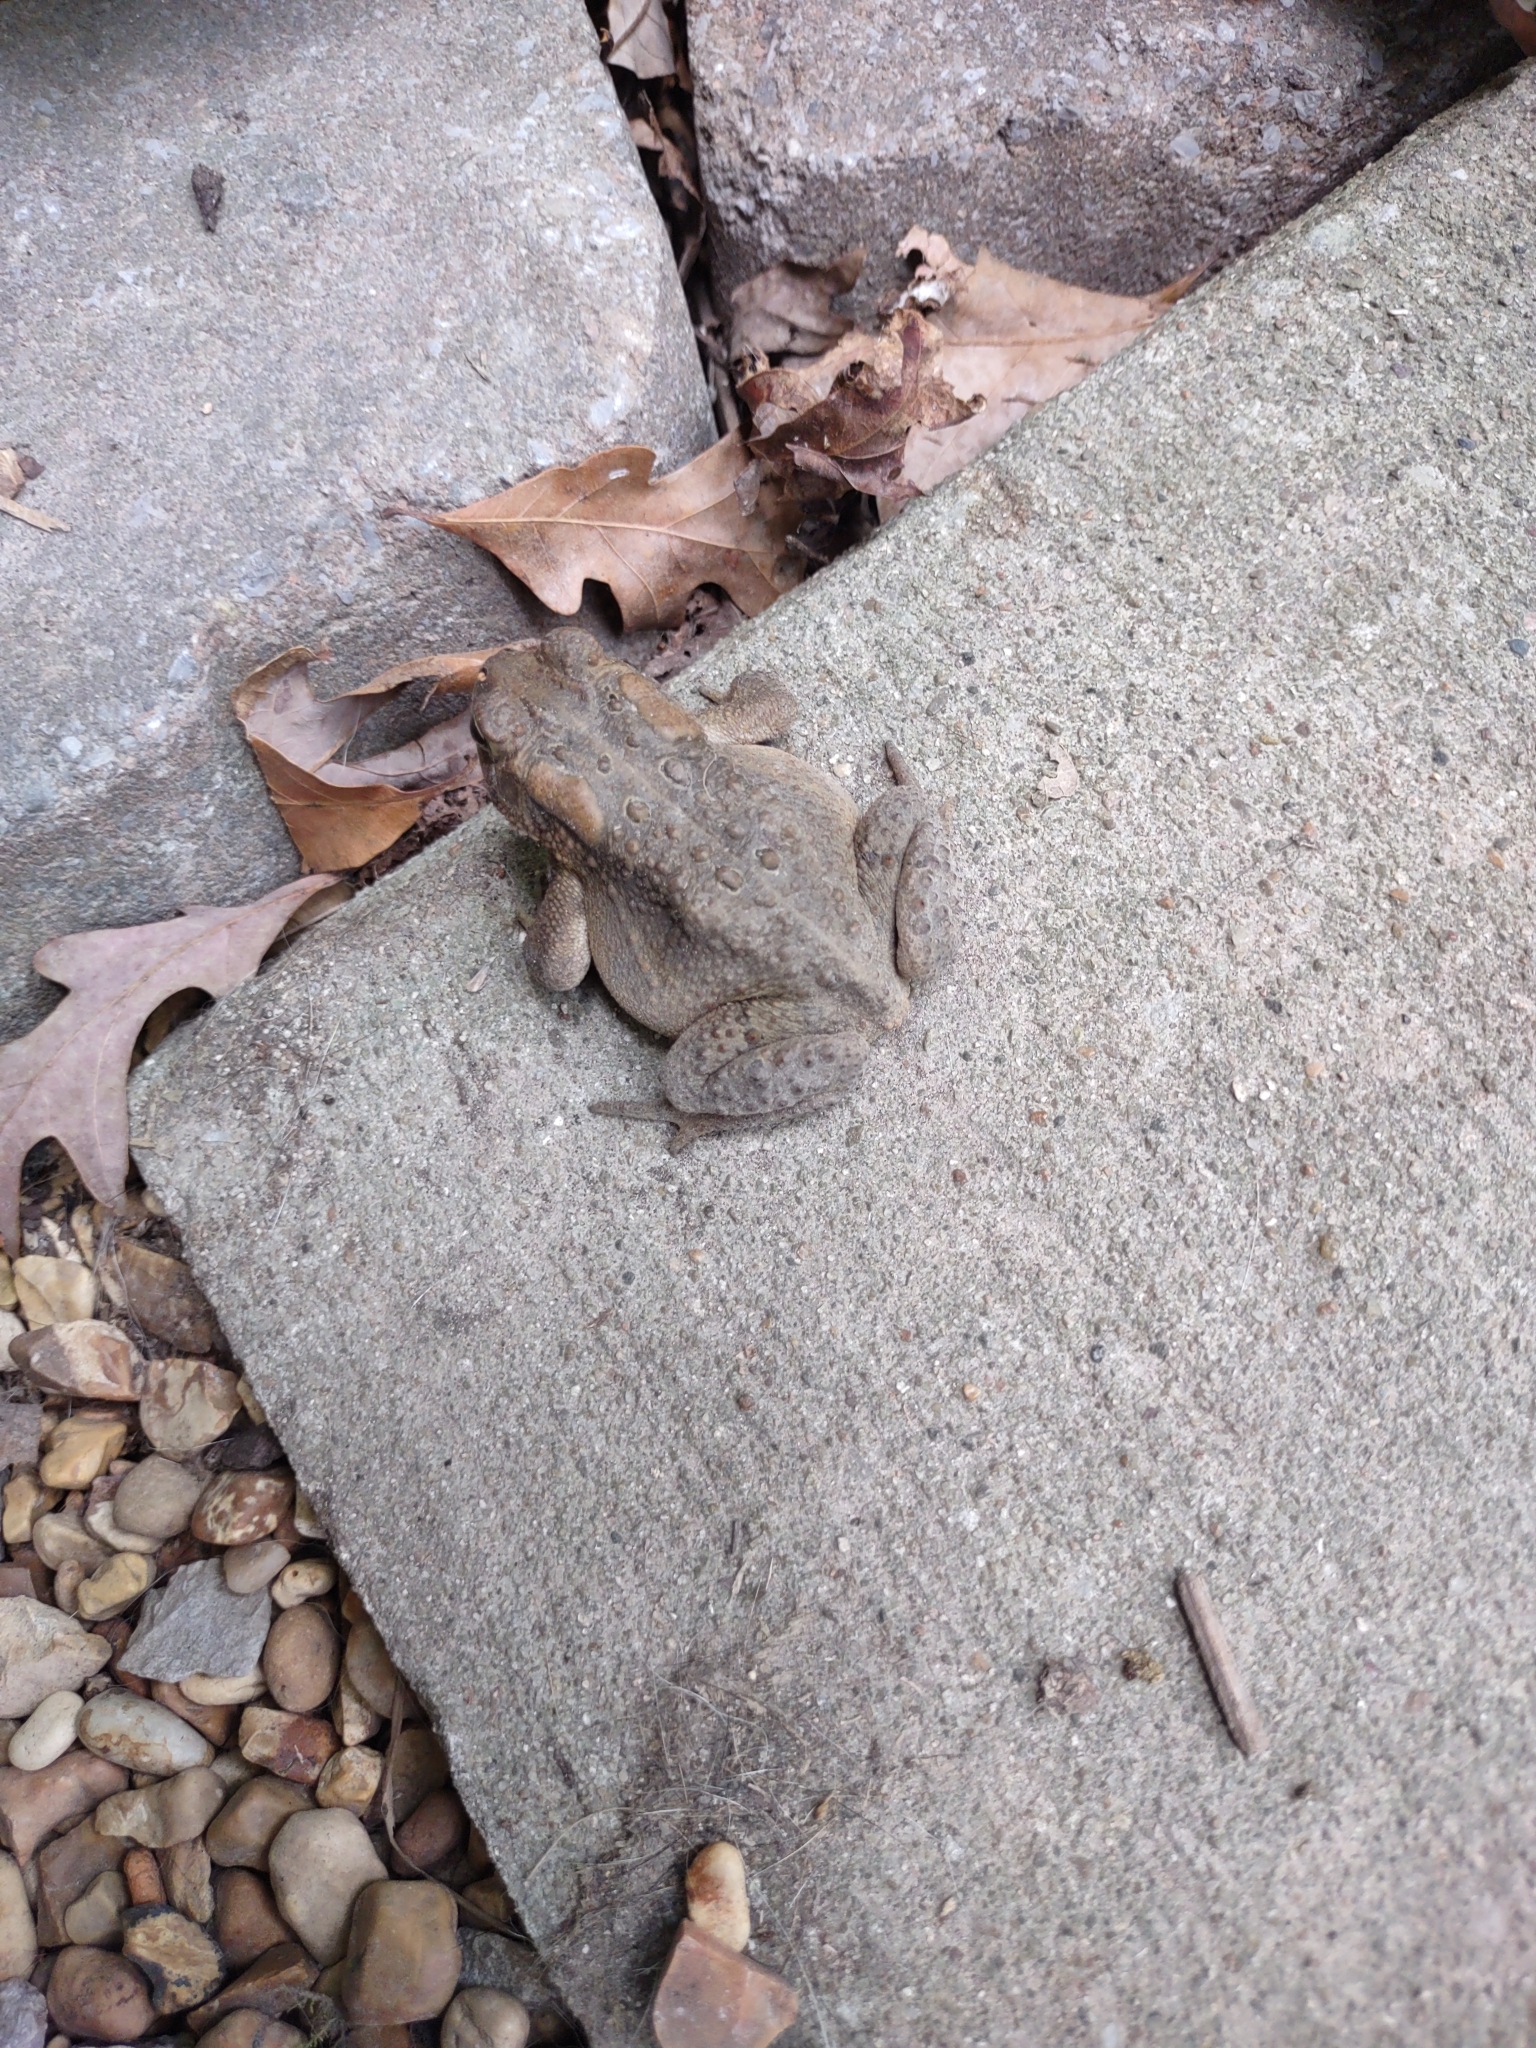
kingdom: Animalia
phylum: Chordata
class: Amphibia
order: Anura
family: Bufonidae
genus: Anaxyrus
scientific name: Anaxyrus americanus
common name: American toad
